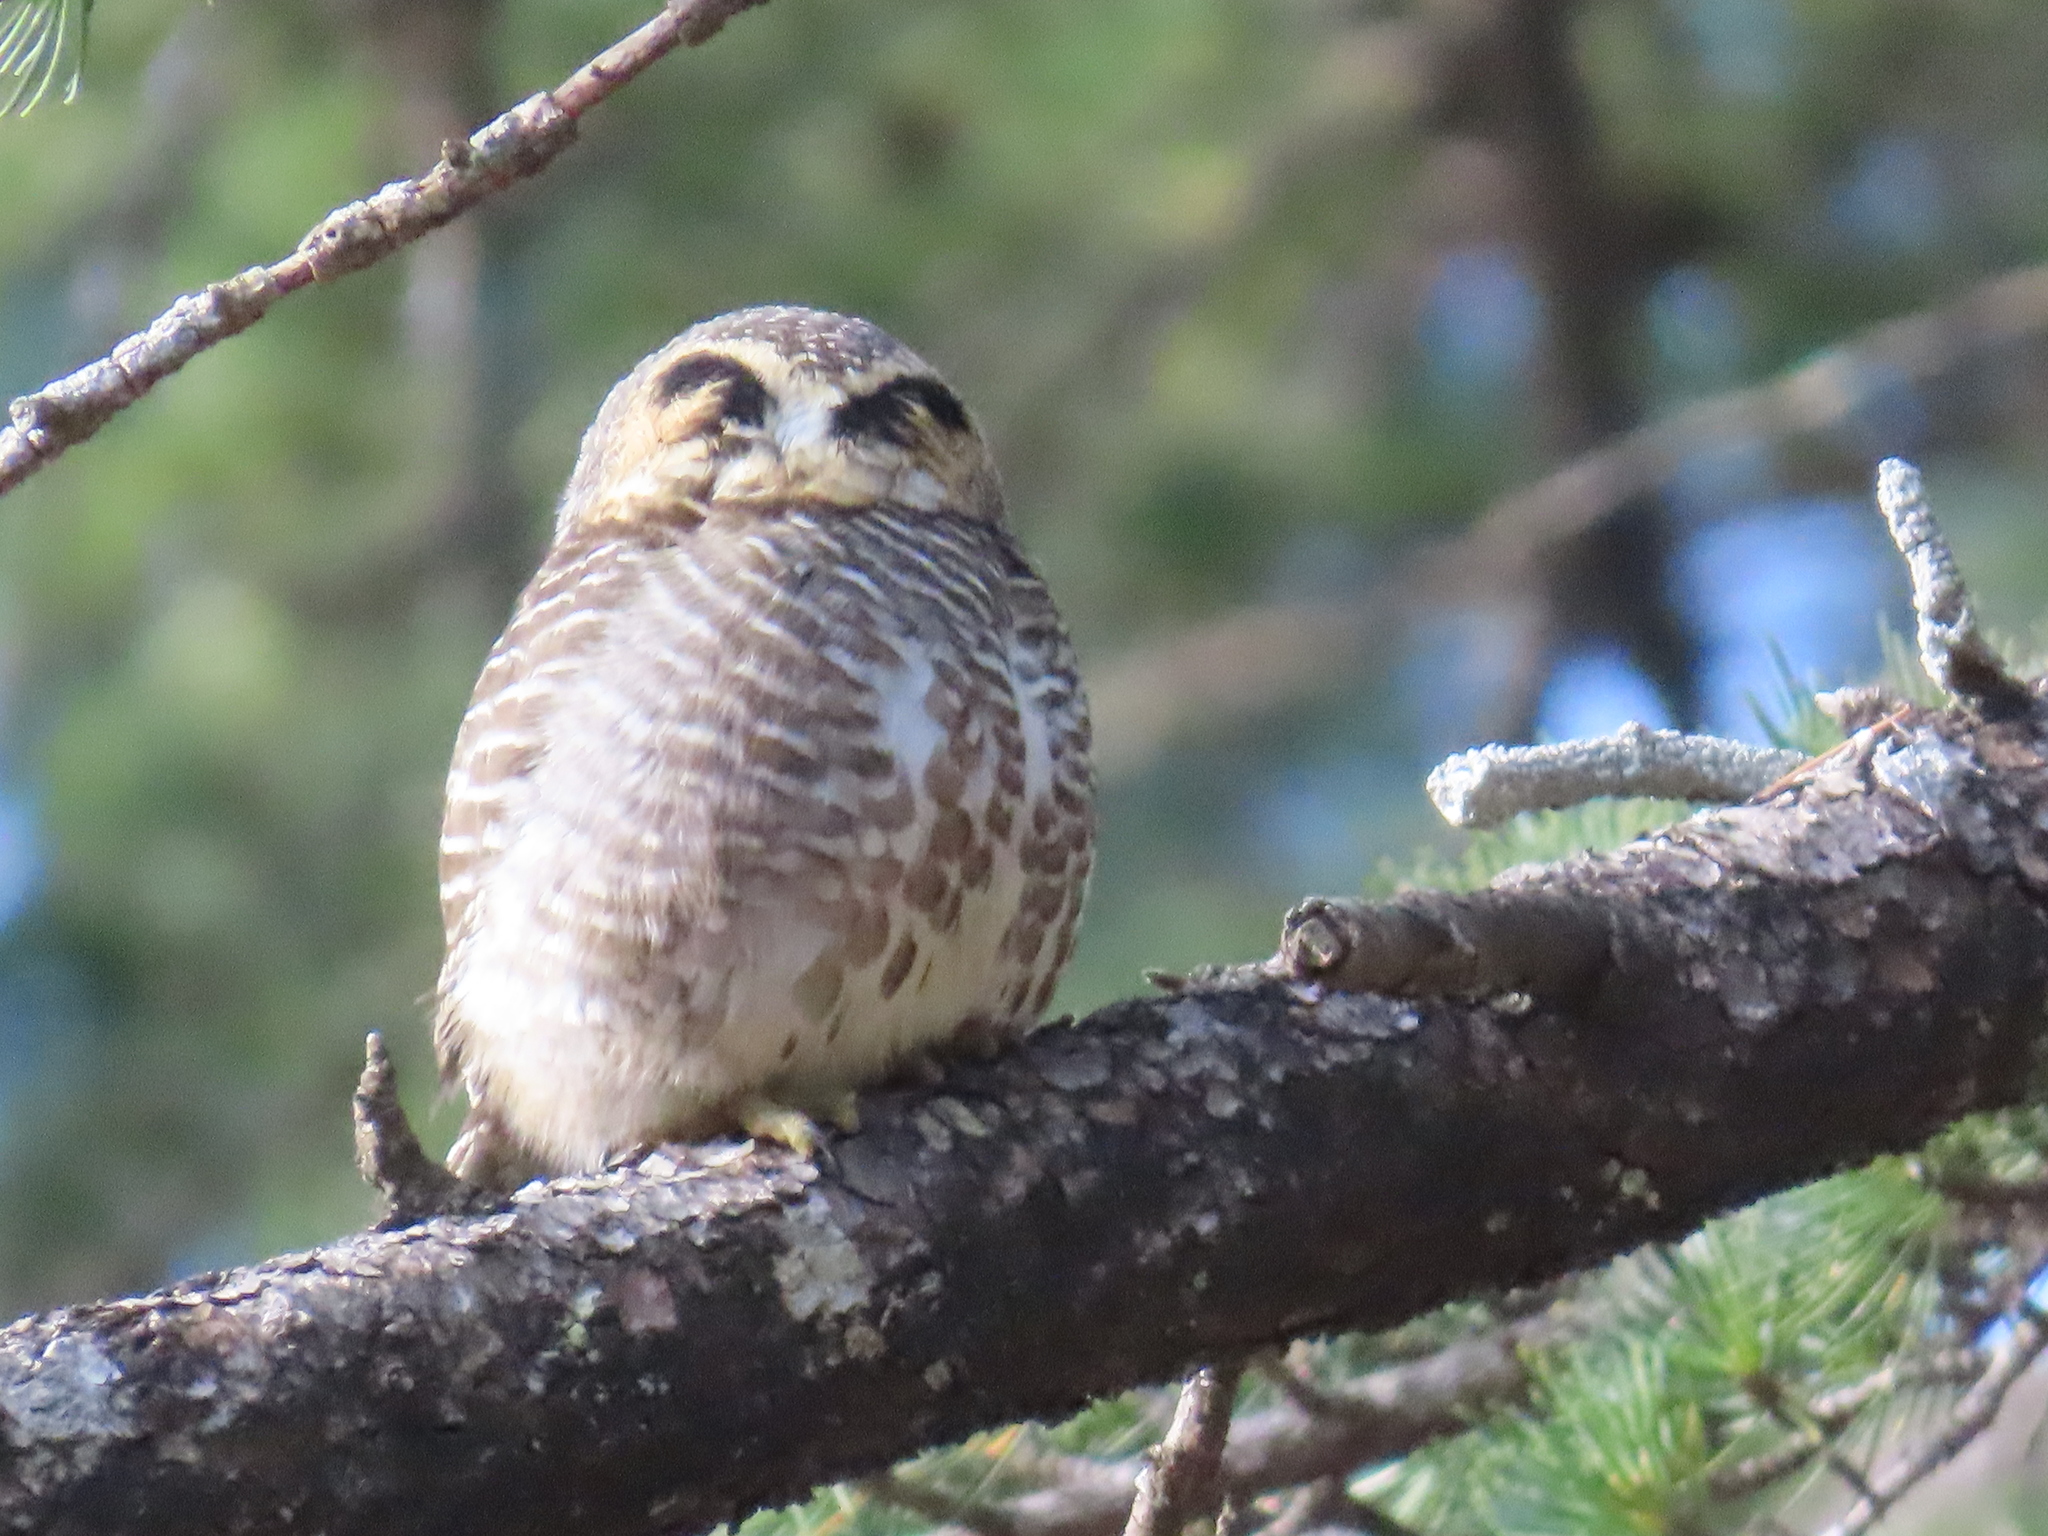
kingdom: Animalia
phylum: Chordata
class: Aves
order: Strigiformes
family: Strigidae
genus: Glaucidium
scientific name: Glaucidium brodiei
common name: Collared owlet
